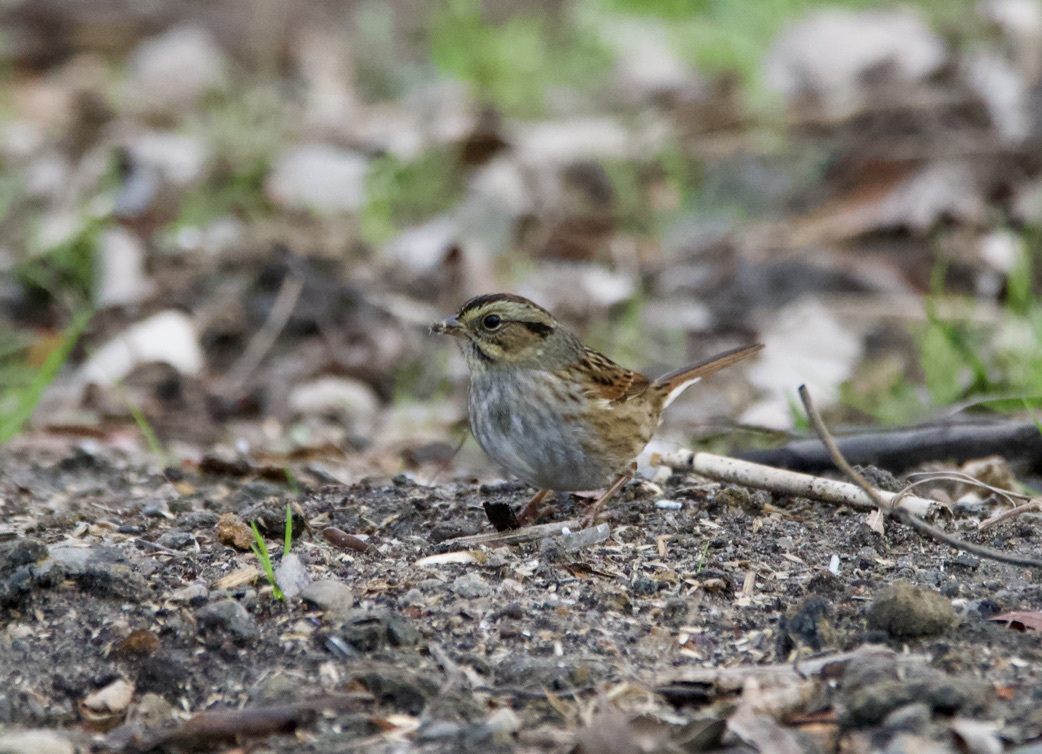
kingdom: Animalia
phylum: Chordata
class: Aves
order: Passeriformes
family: Passerellidae
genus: Melospiza
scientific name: Melospiza georgiana
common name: Swamp sparrow
